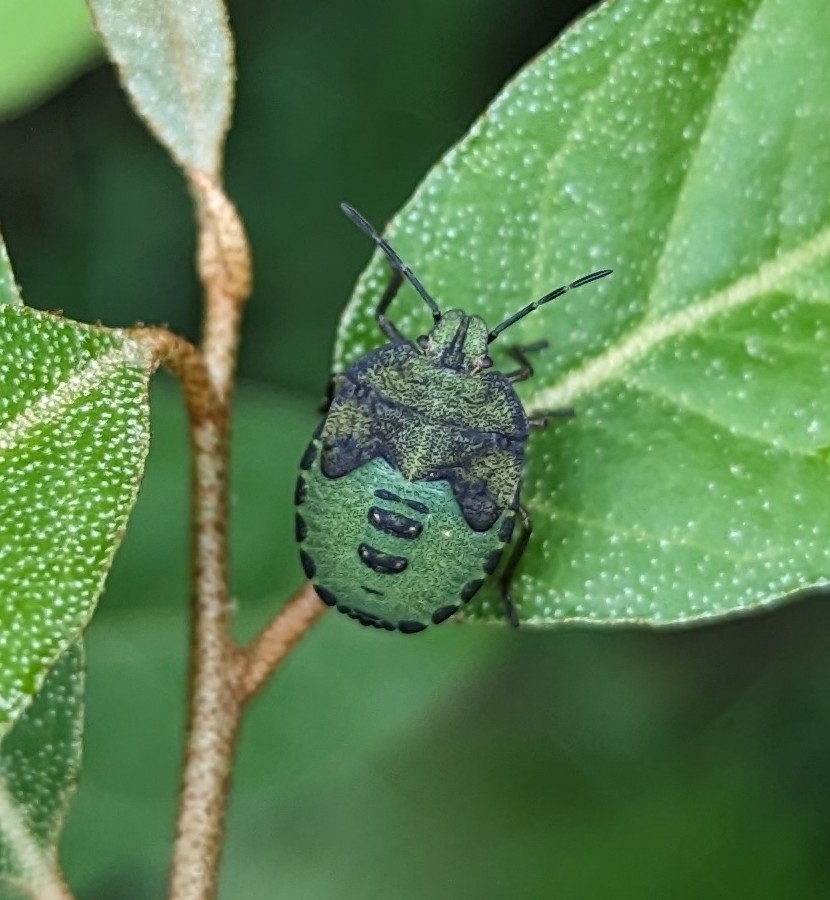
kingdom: Animalia
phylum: Arthropoda
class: Insecta
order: Hemiptera
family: Pentatomidae
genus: Palomena
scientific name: Palomena prasina
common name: Green shieldbug
